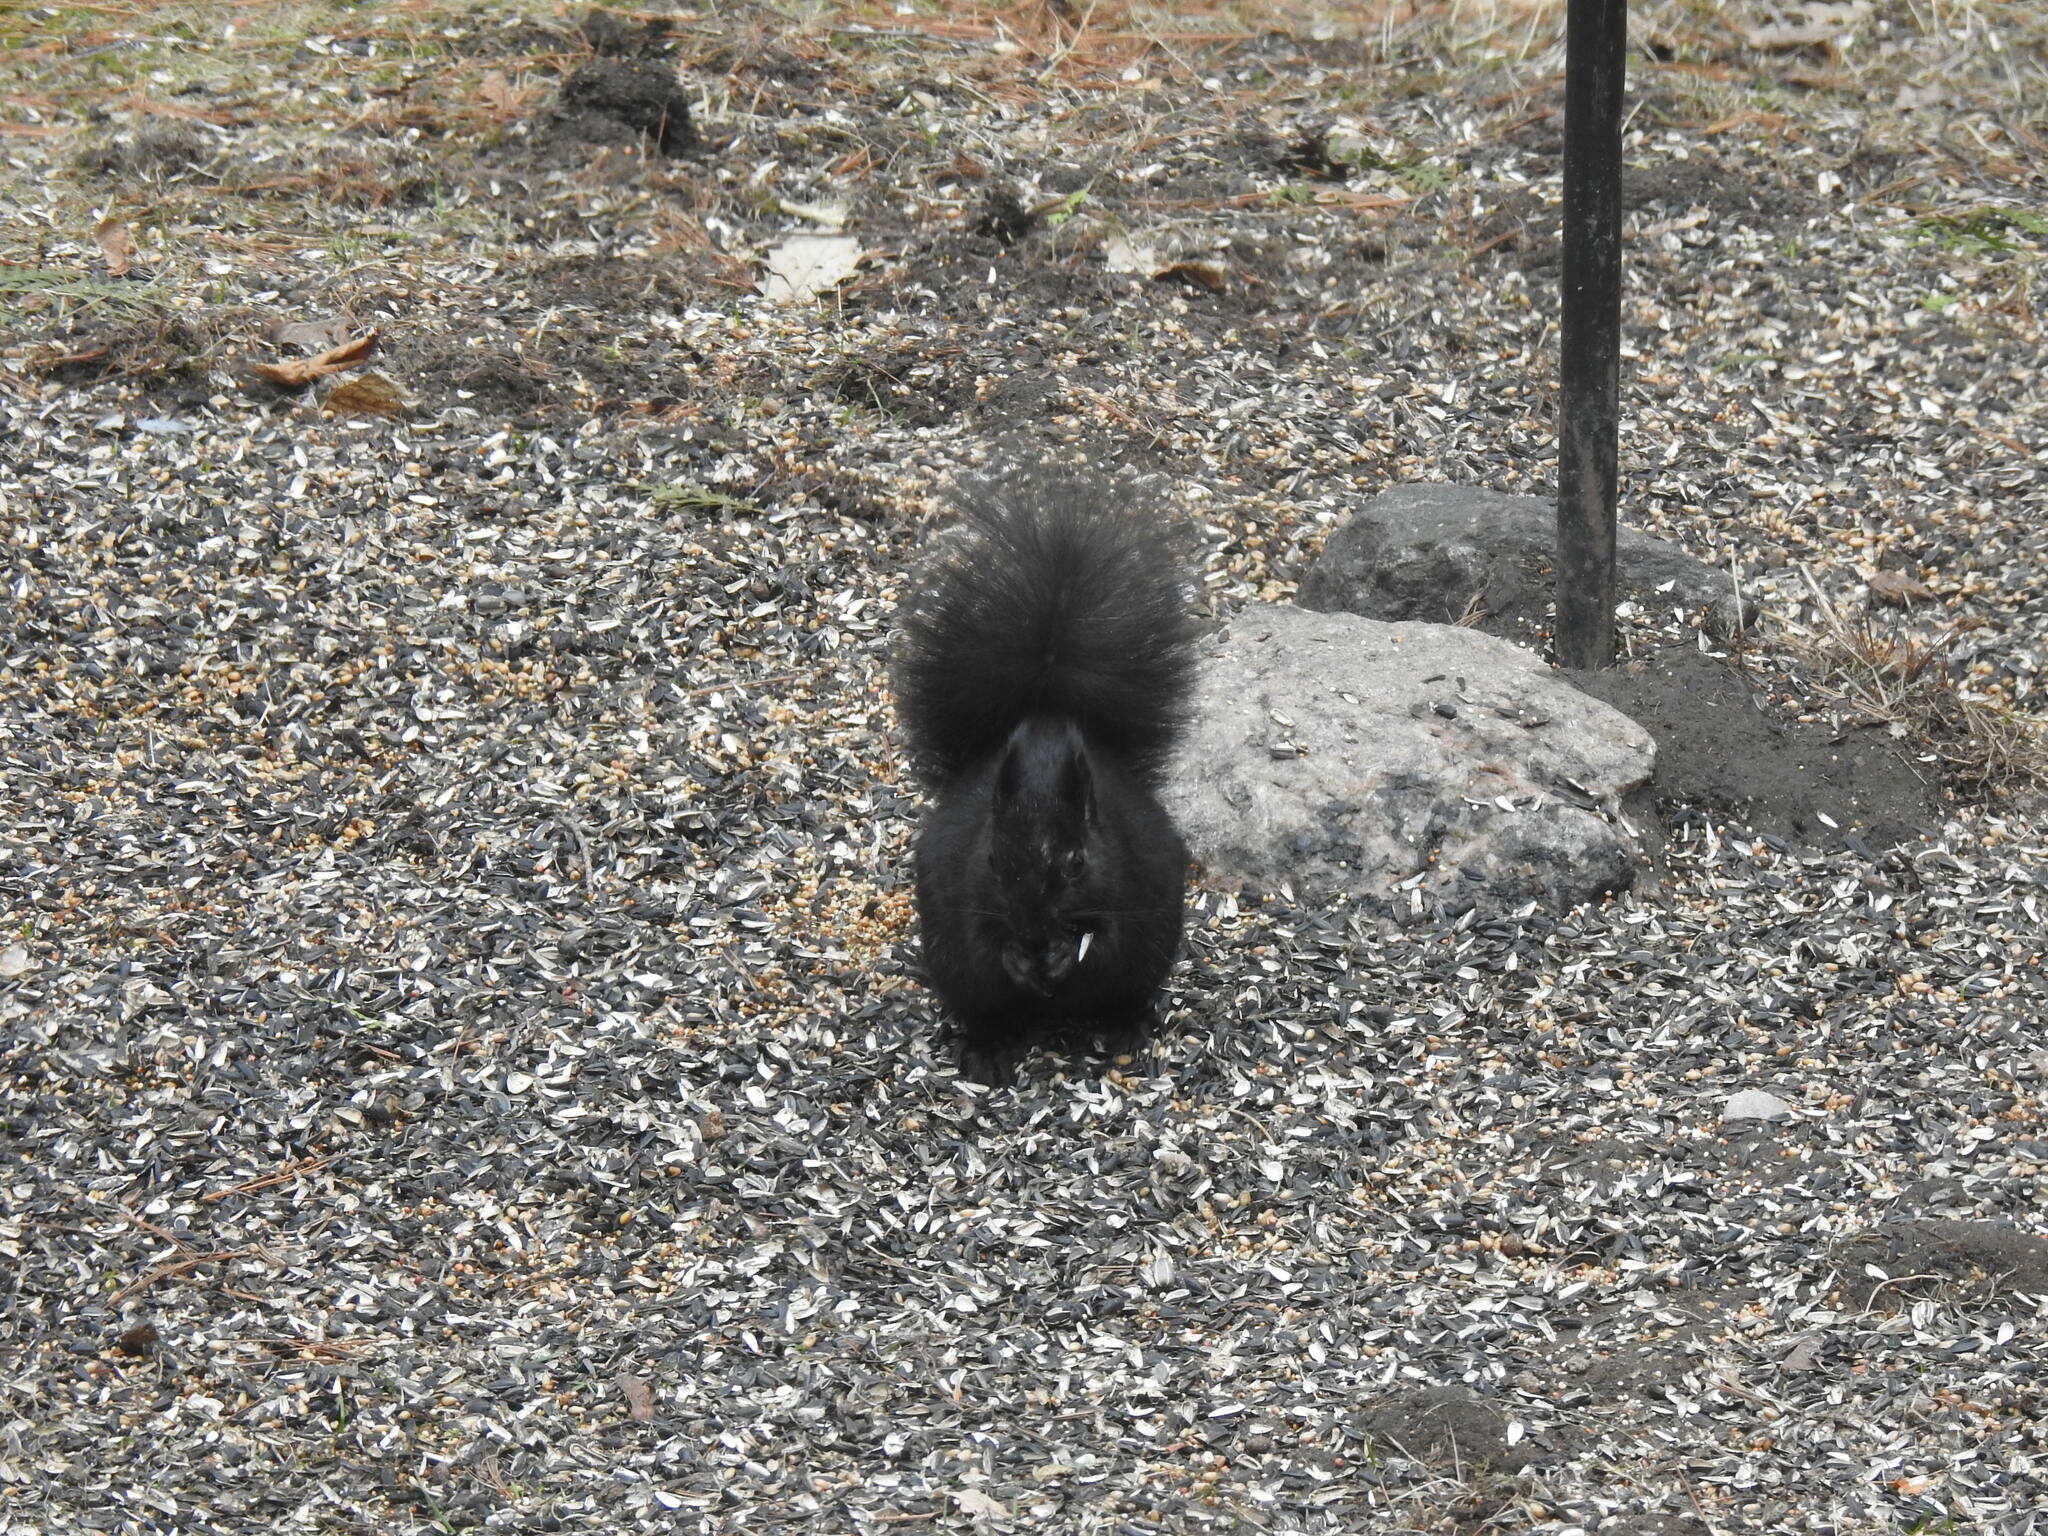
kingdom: Animalia
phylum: Chordata
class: Mammalia
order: Rodentia
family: Sciuridae
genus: Sciurus
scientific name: Sciurus carolinensis
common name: Eastern gray squirrel
